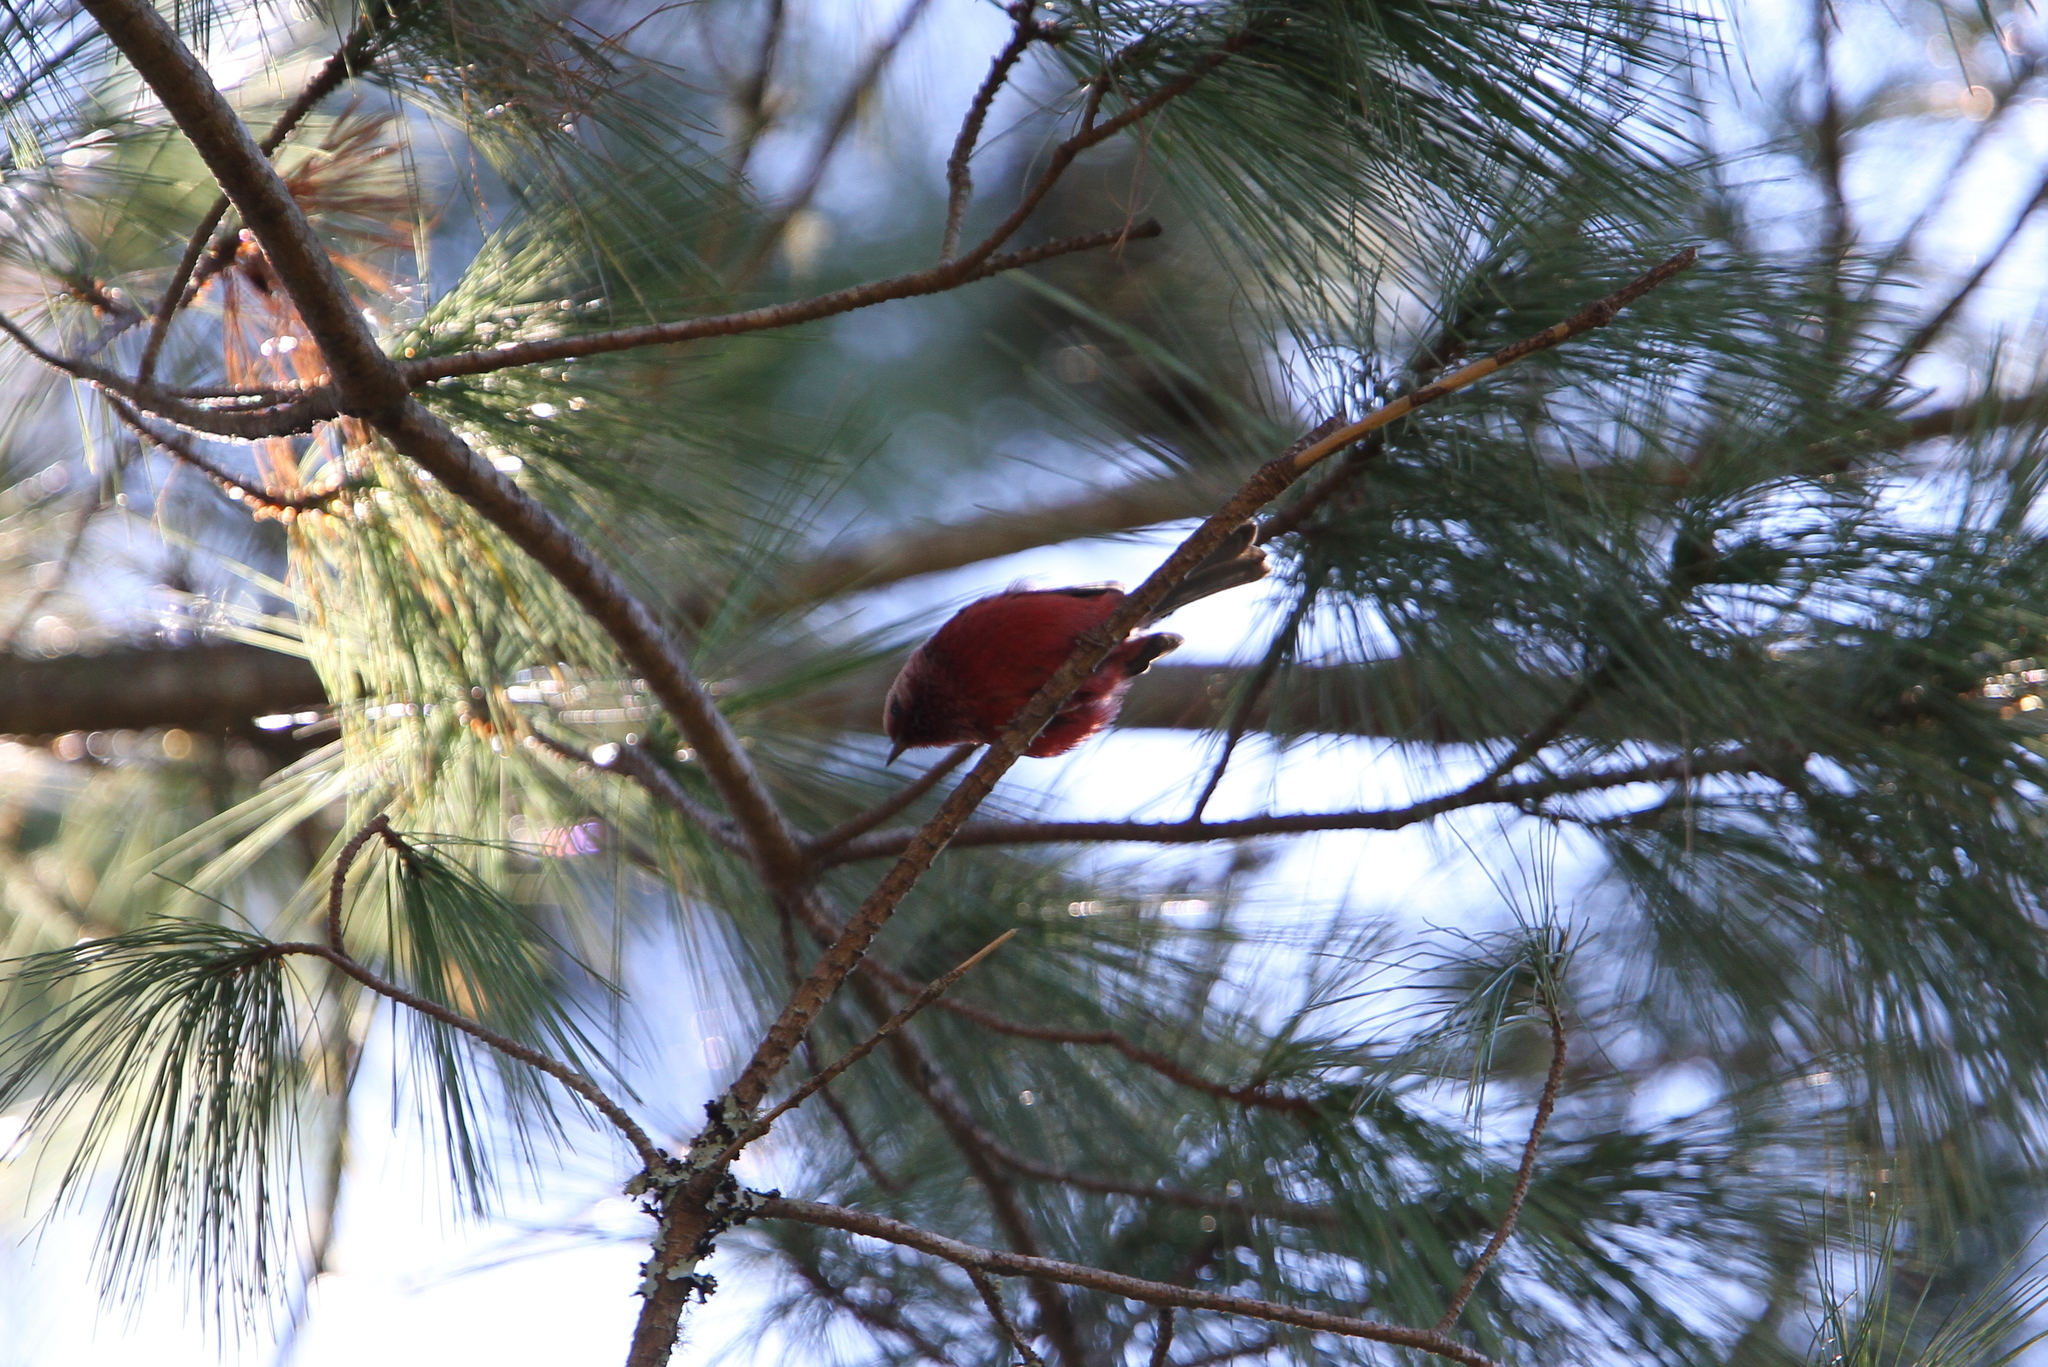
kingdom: Animalia
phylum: Chordata
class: Aves
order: Passeriformes
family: Parulidae
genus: Cardellina
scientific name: Cardellina versicolor
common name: Pink-headed warbler
